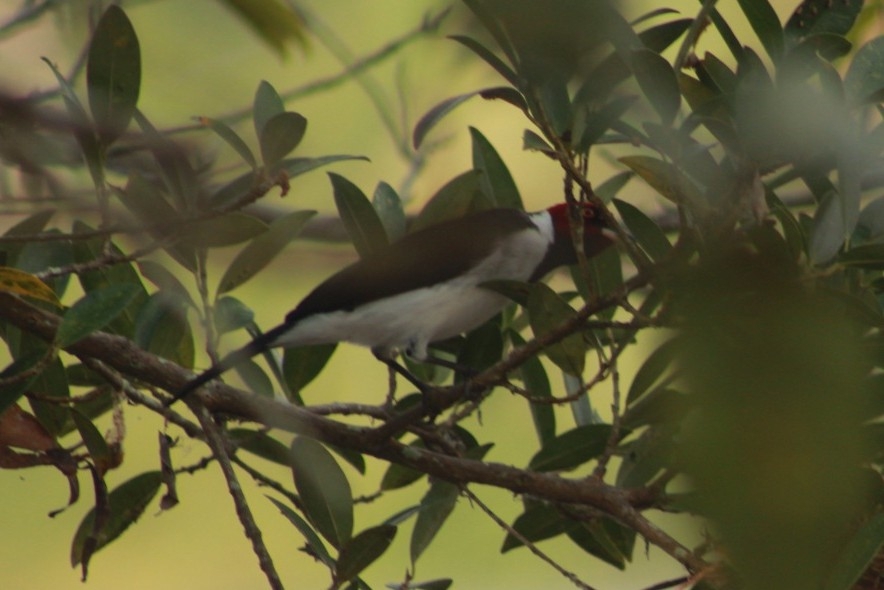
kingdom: Animalia
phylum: Chordata
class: Aves
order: Passeriformes
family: Thraupidae
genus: Paroaria
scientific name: Paroaria gularis
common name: Red-capped cardinal
